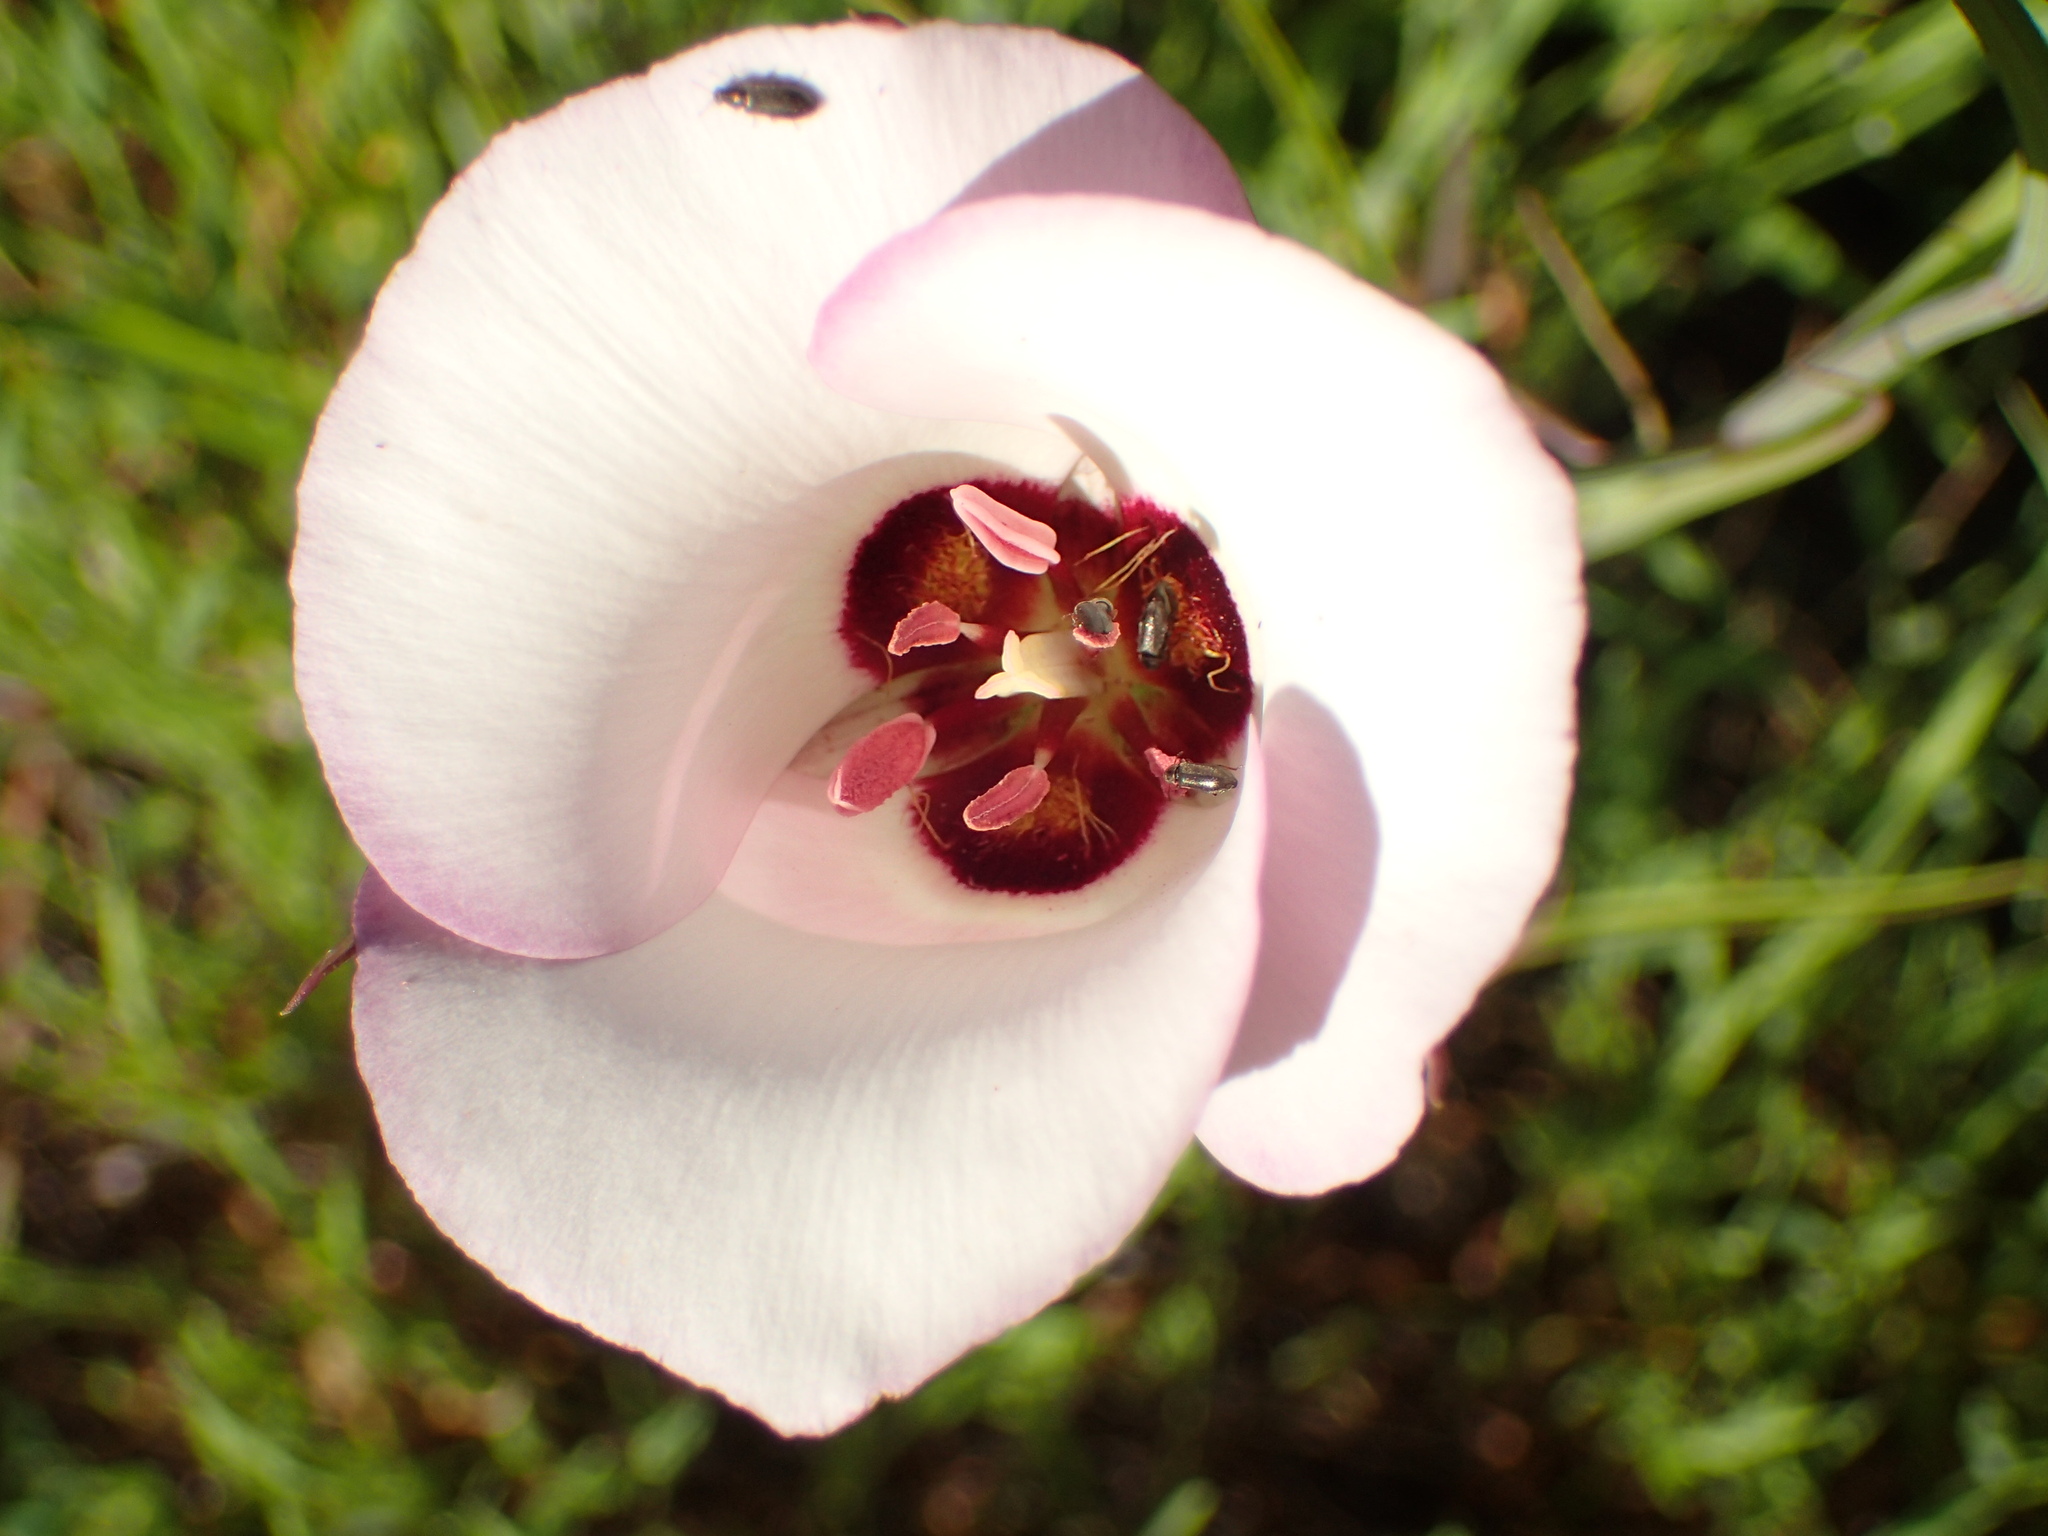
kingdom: Plantae
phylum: Tracheophyta
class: Liliopsida
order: Liliales
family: Liliaceae
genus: Calochortus
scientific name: Calochortus catalinae
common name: Catalina mariposa-lily
